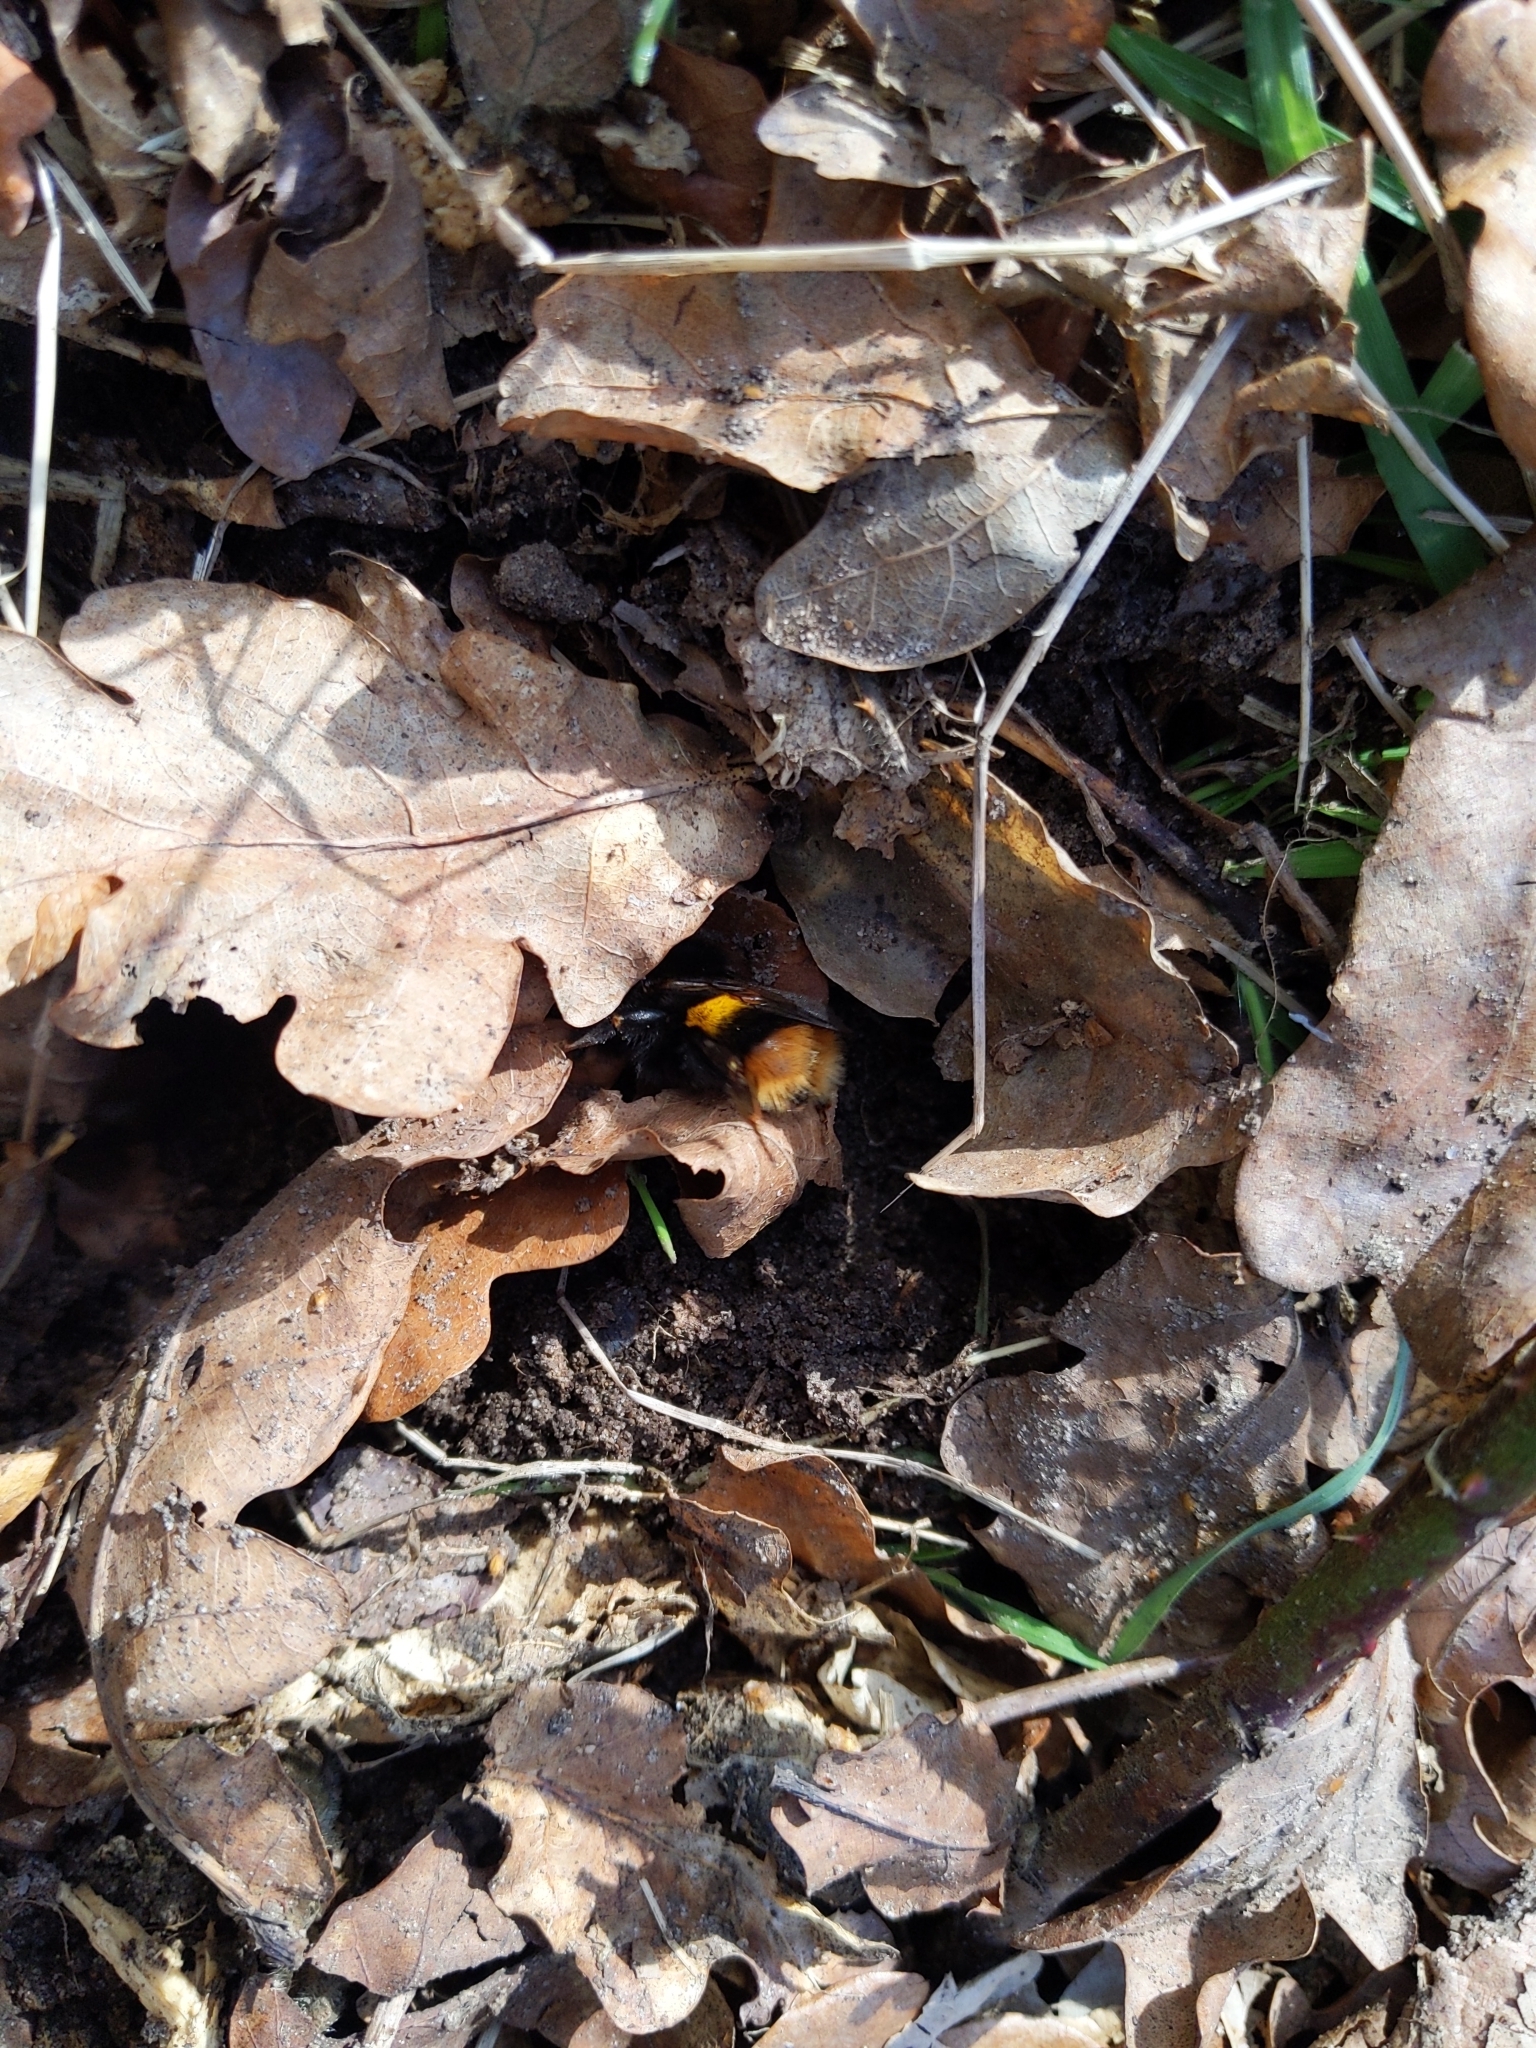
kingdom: Animalia
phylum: Arthropoda
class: Insecta
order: Hymenoptera
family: Apidae
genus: Bombus
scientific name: Bombus terrestris
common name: Buff-tailed bumblebee
